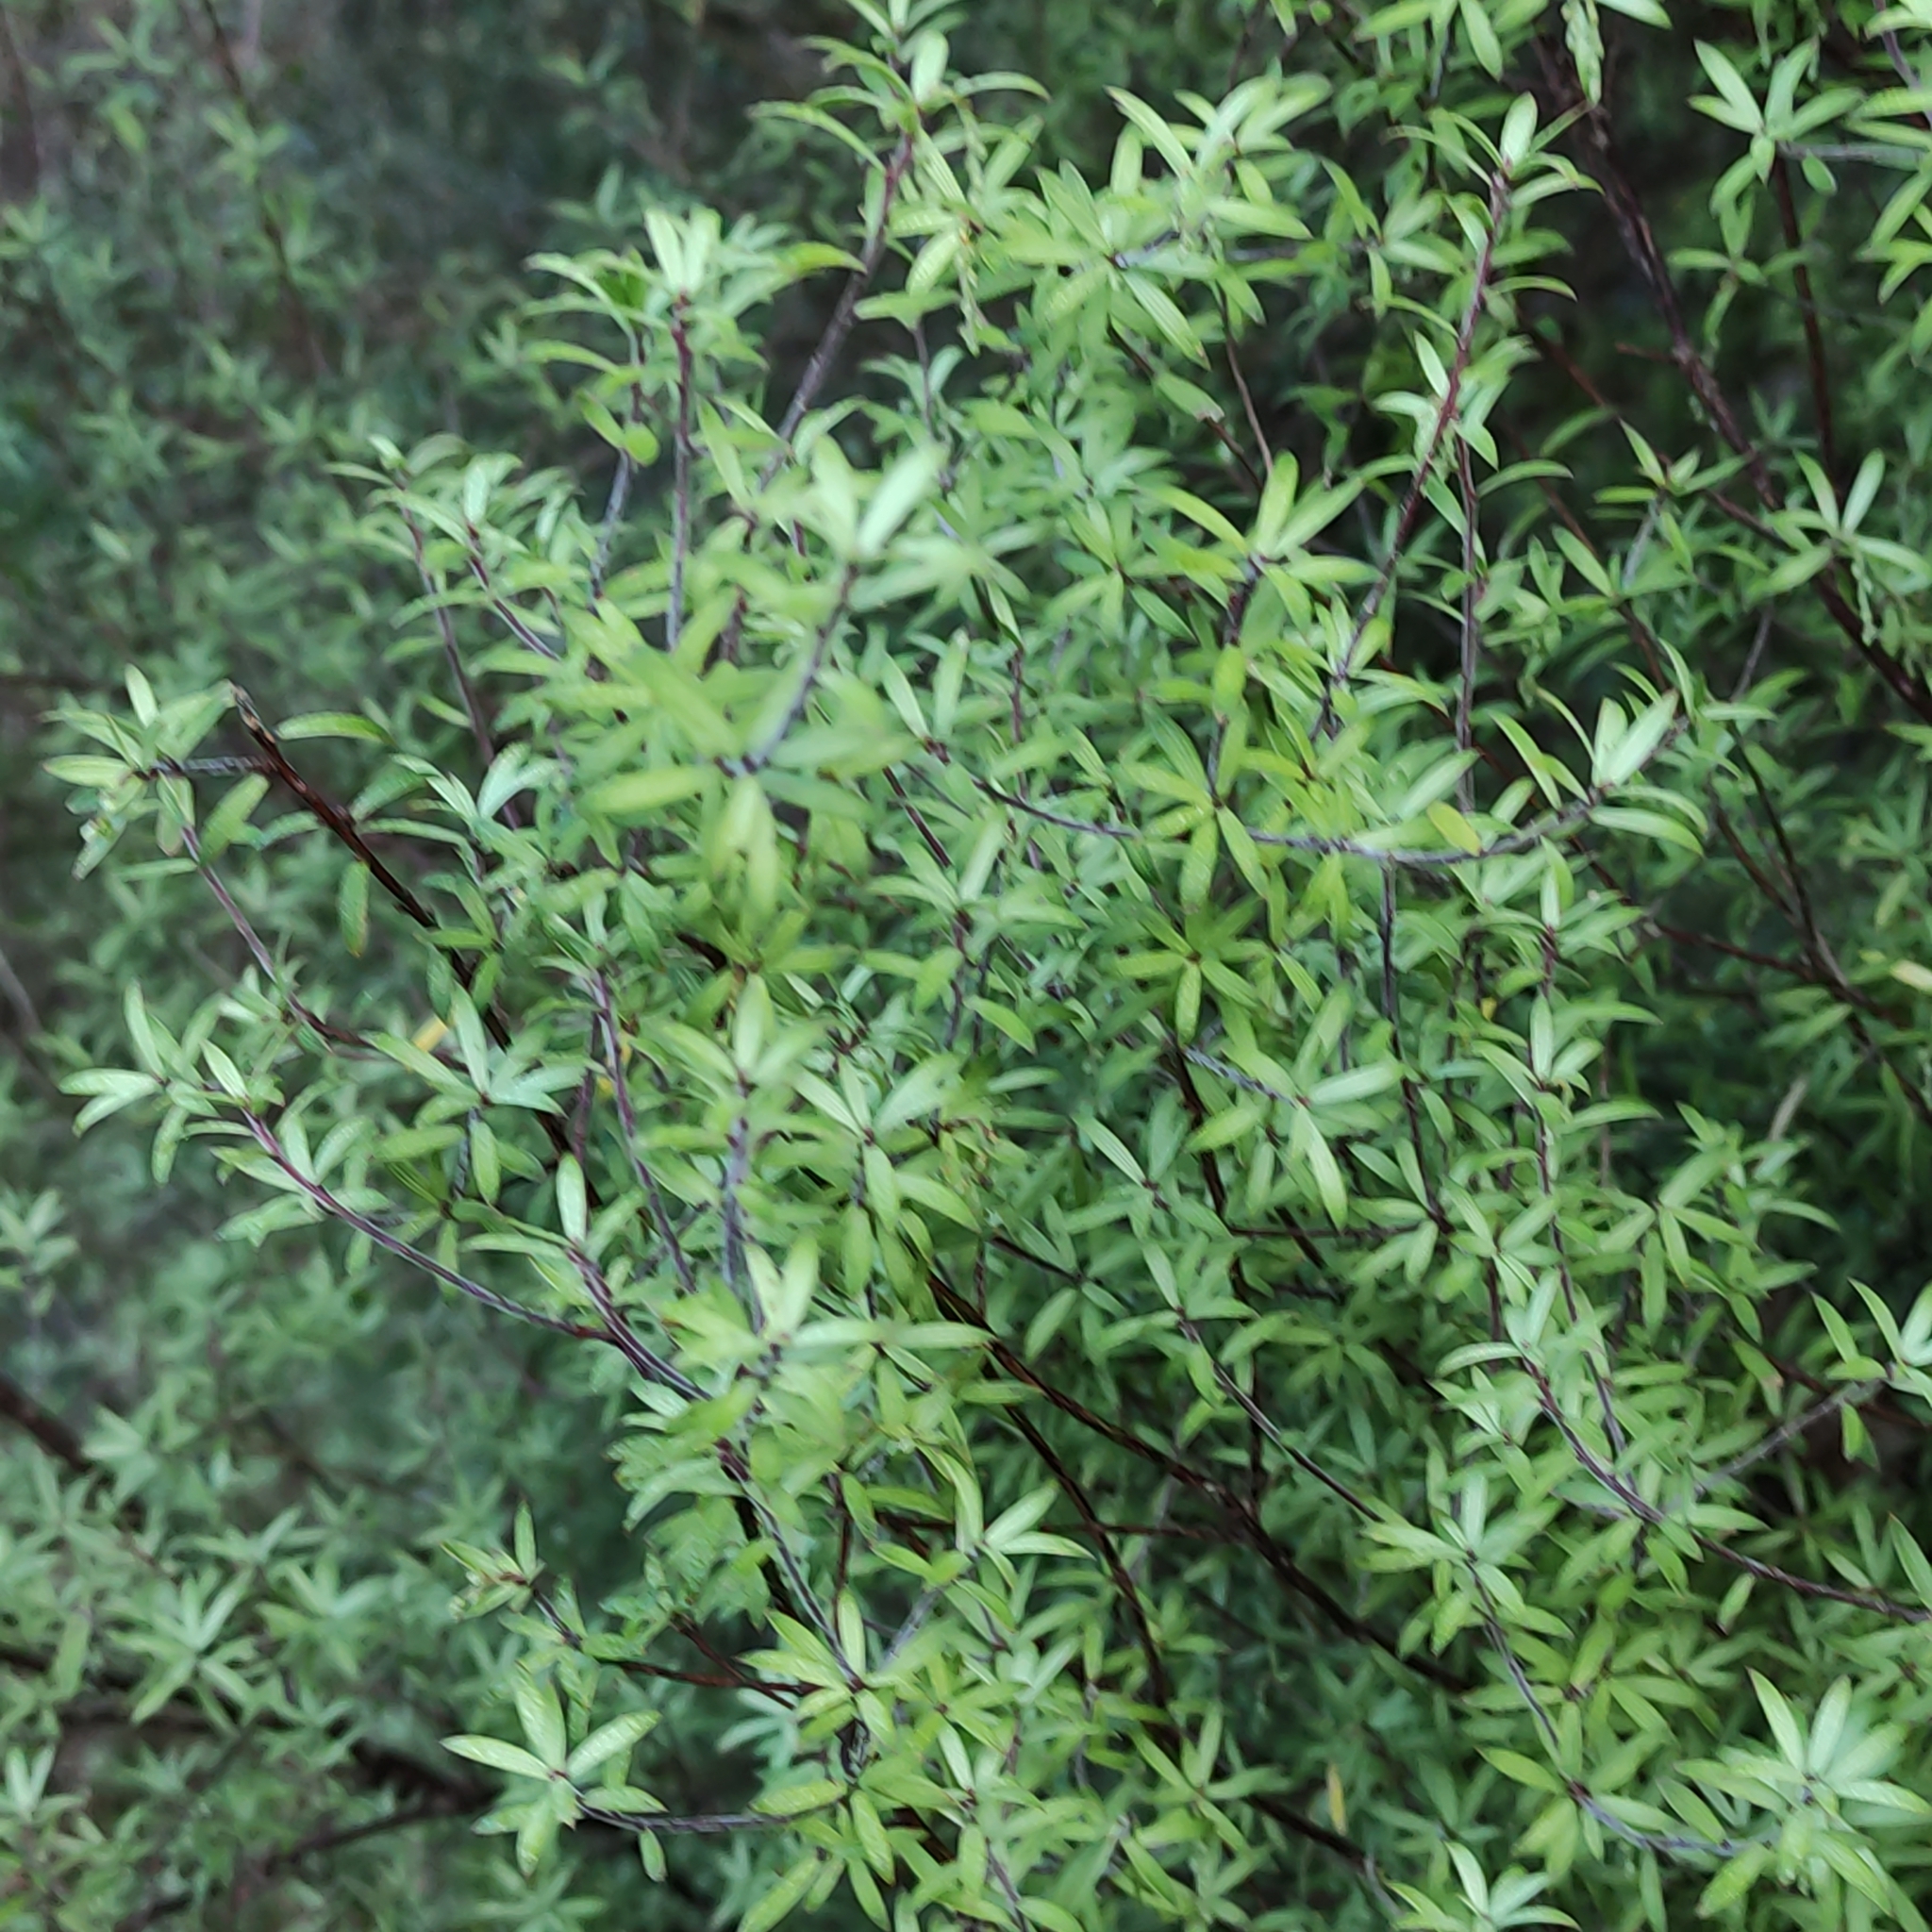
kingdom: Plantae
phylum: Tracheophyta
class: Magnoliopsida
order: Ericales
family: Ericaceae
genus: Leucopogon
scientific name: Leucopogon fasciculatus
